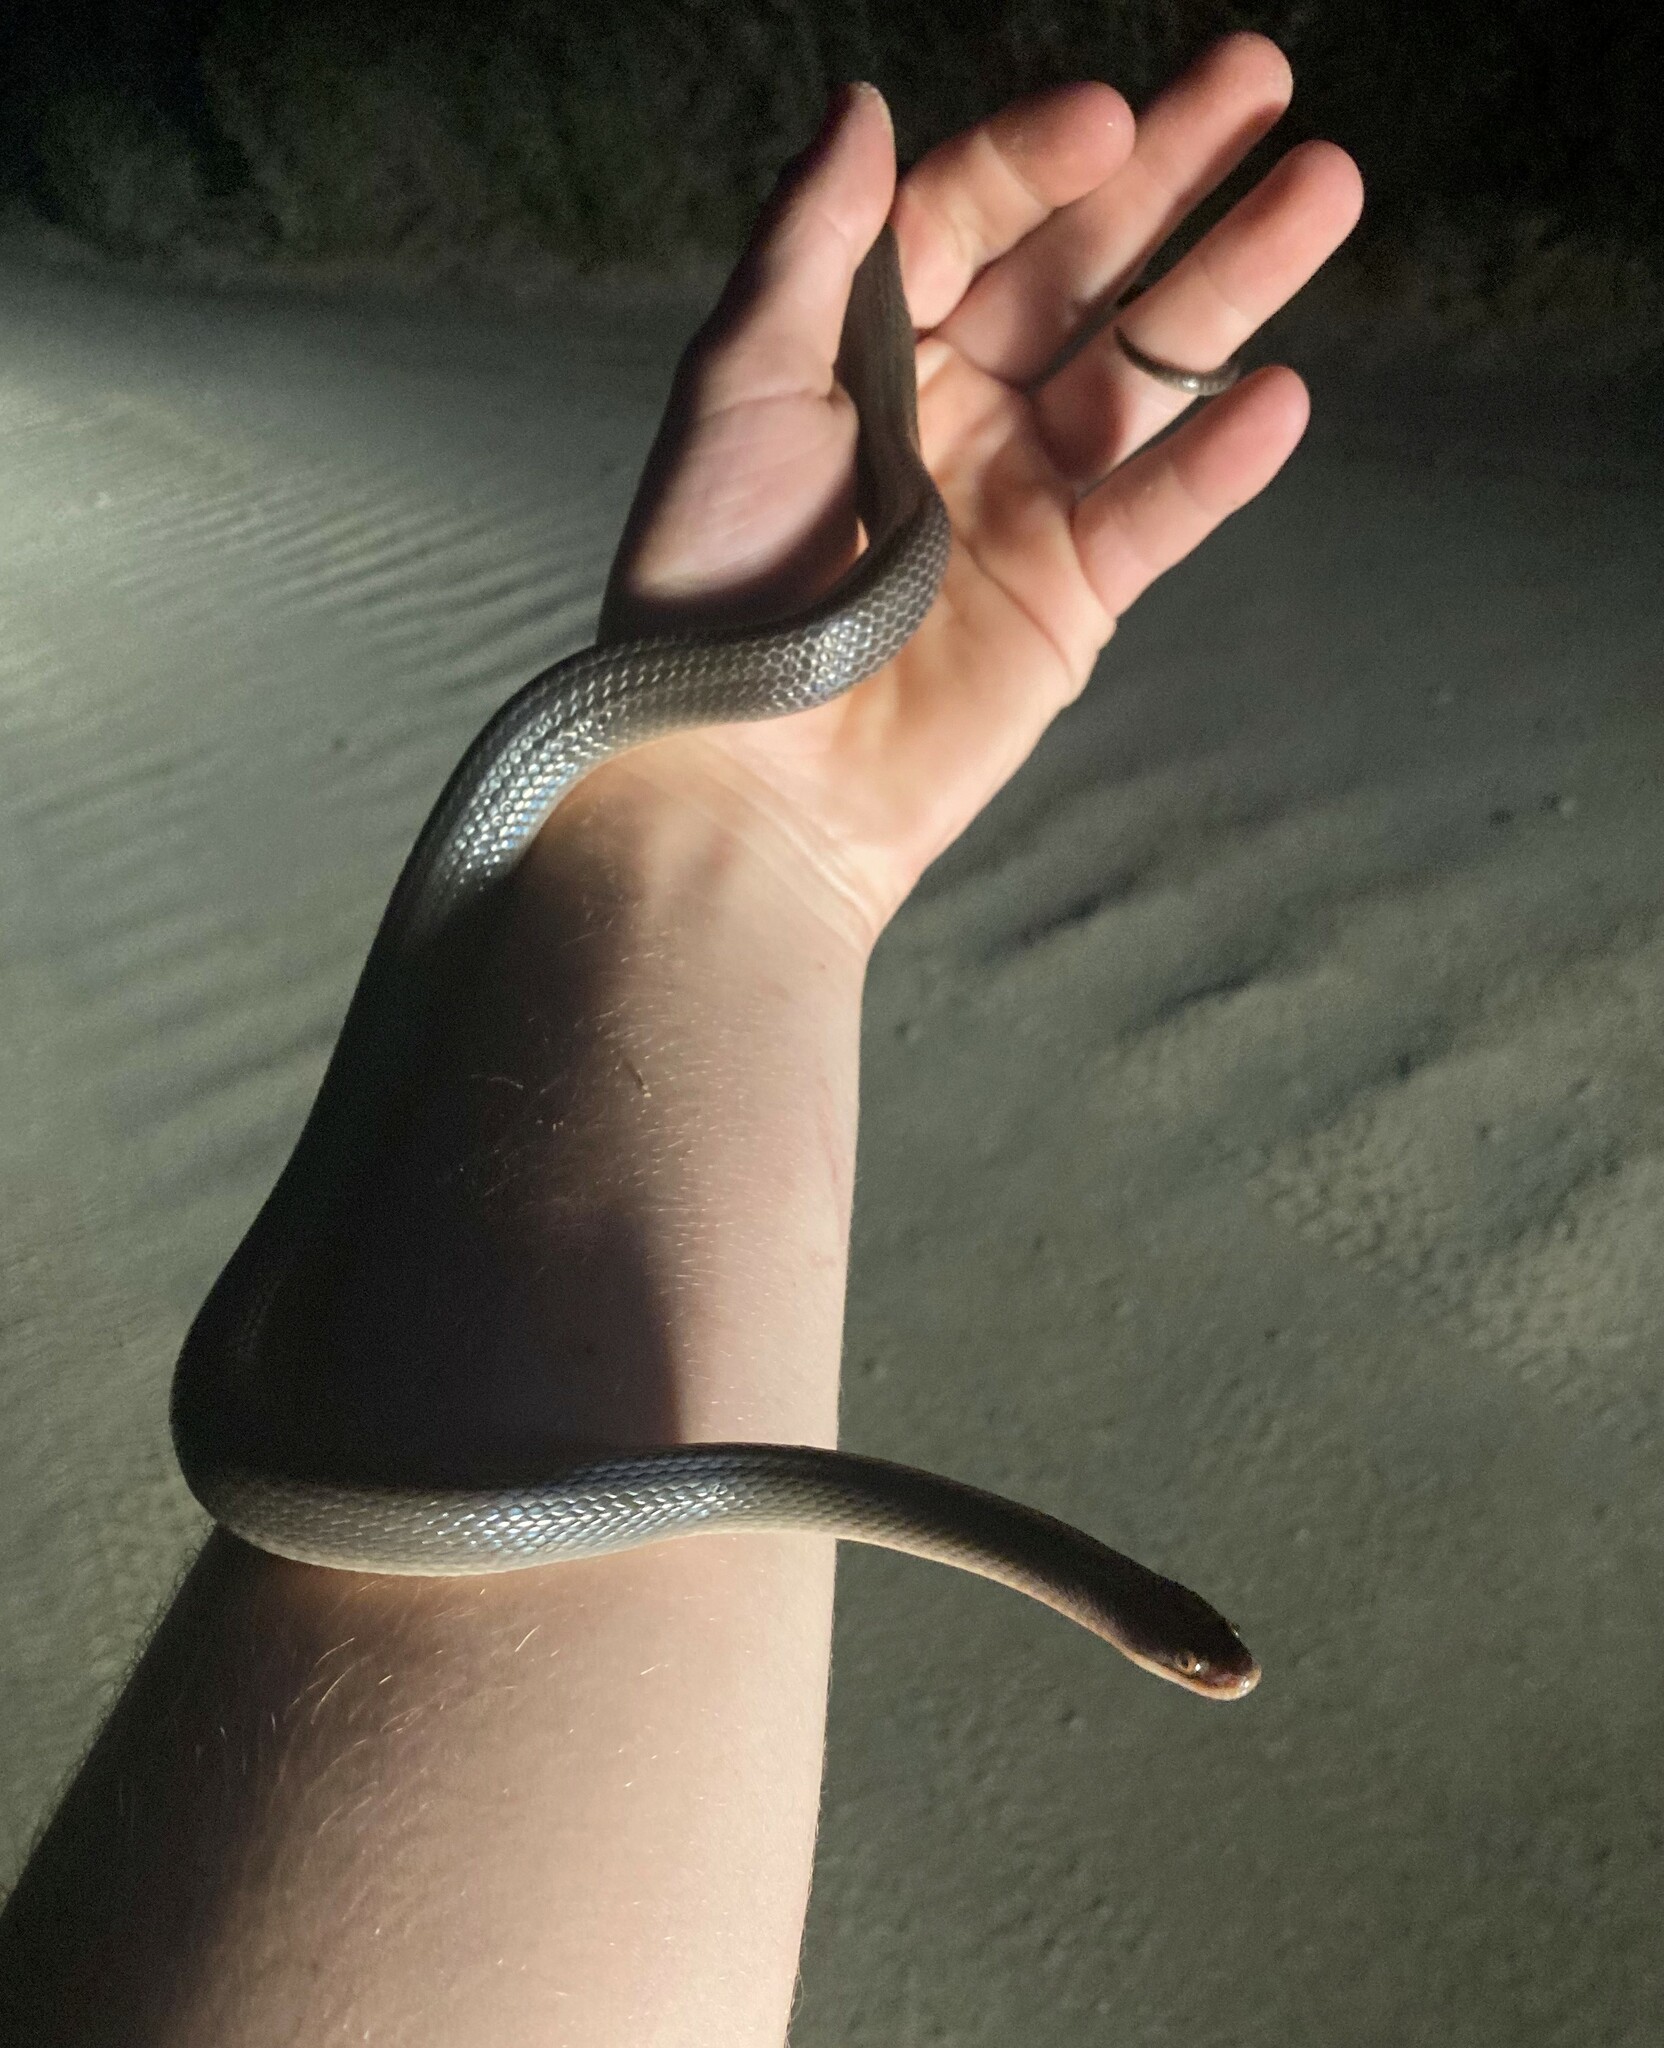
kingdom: Animalia
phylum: Chordata
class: Squamata
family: Lamprophiidae
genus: Lycodonomorphus
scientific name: Lycodonomorphus rufulus
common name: Brown water snake
